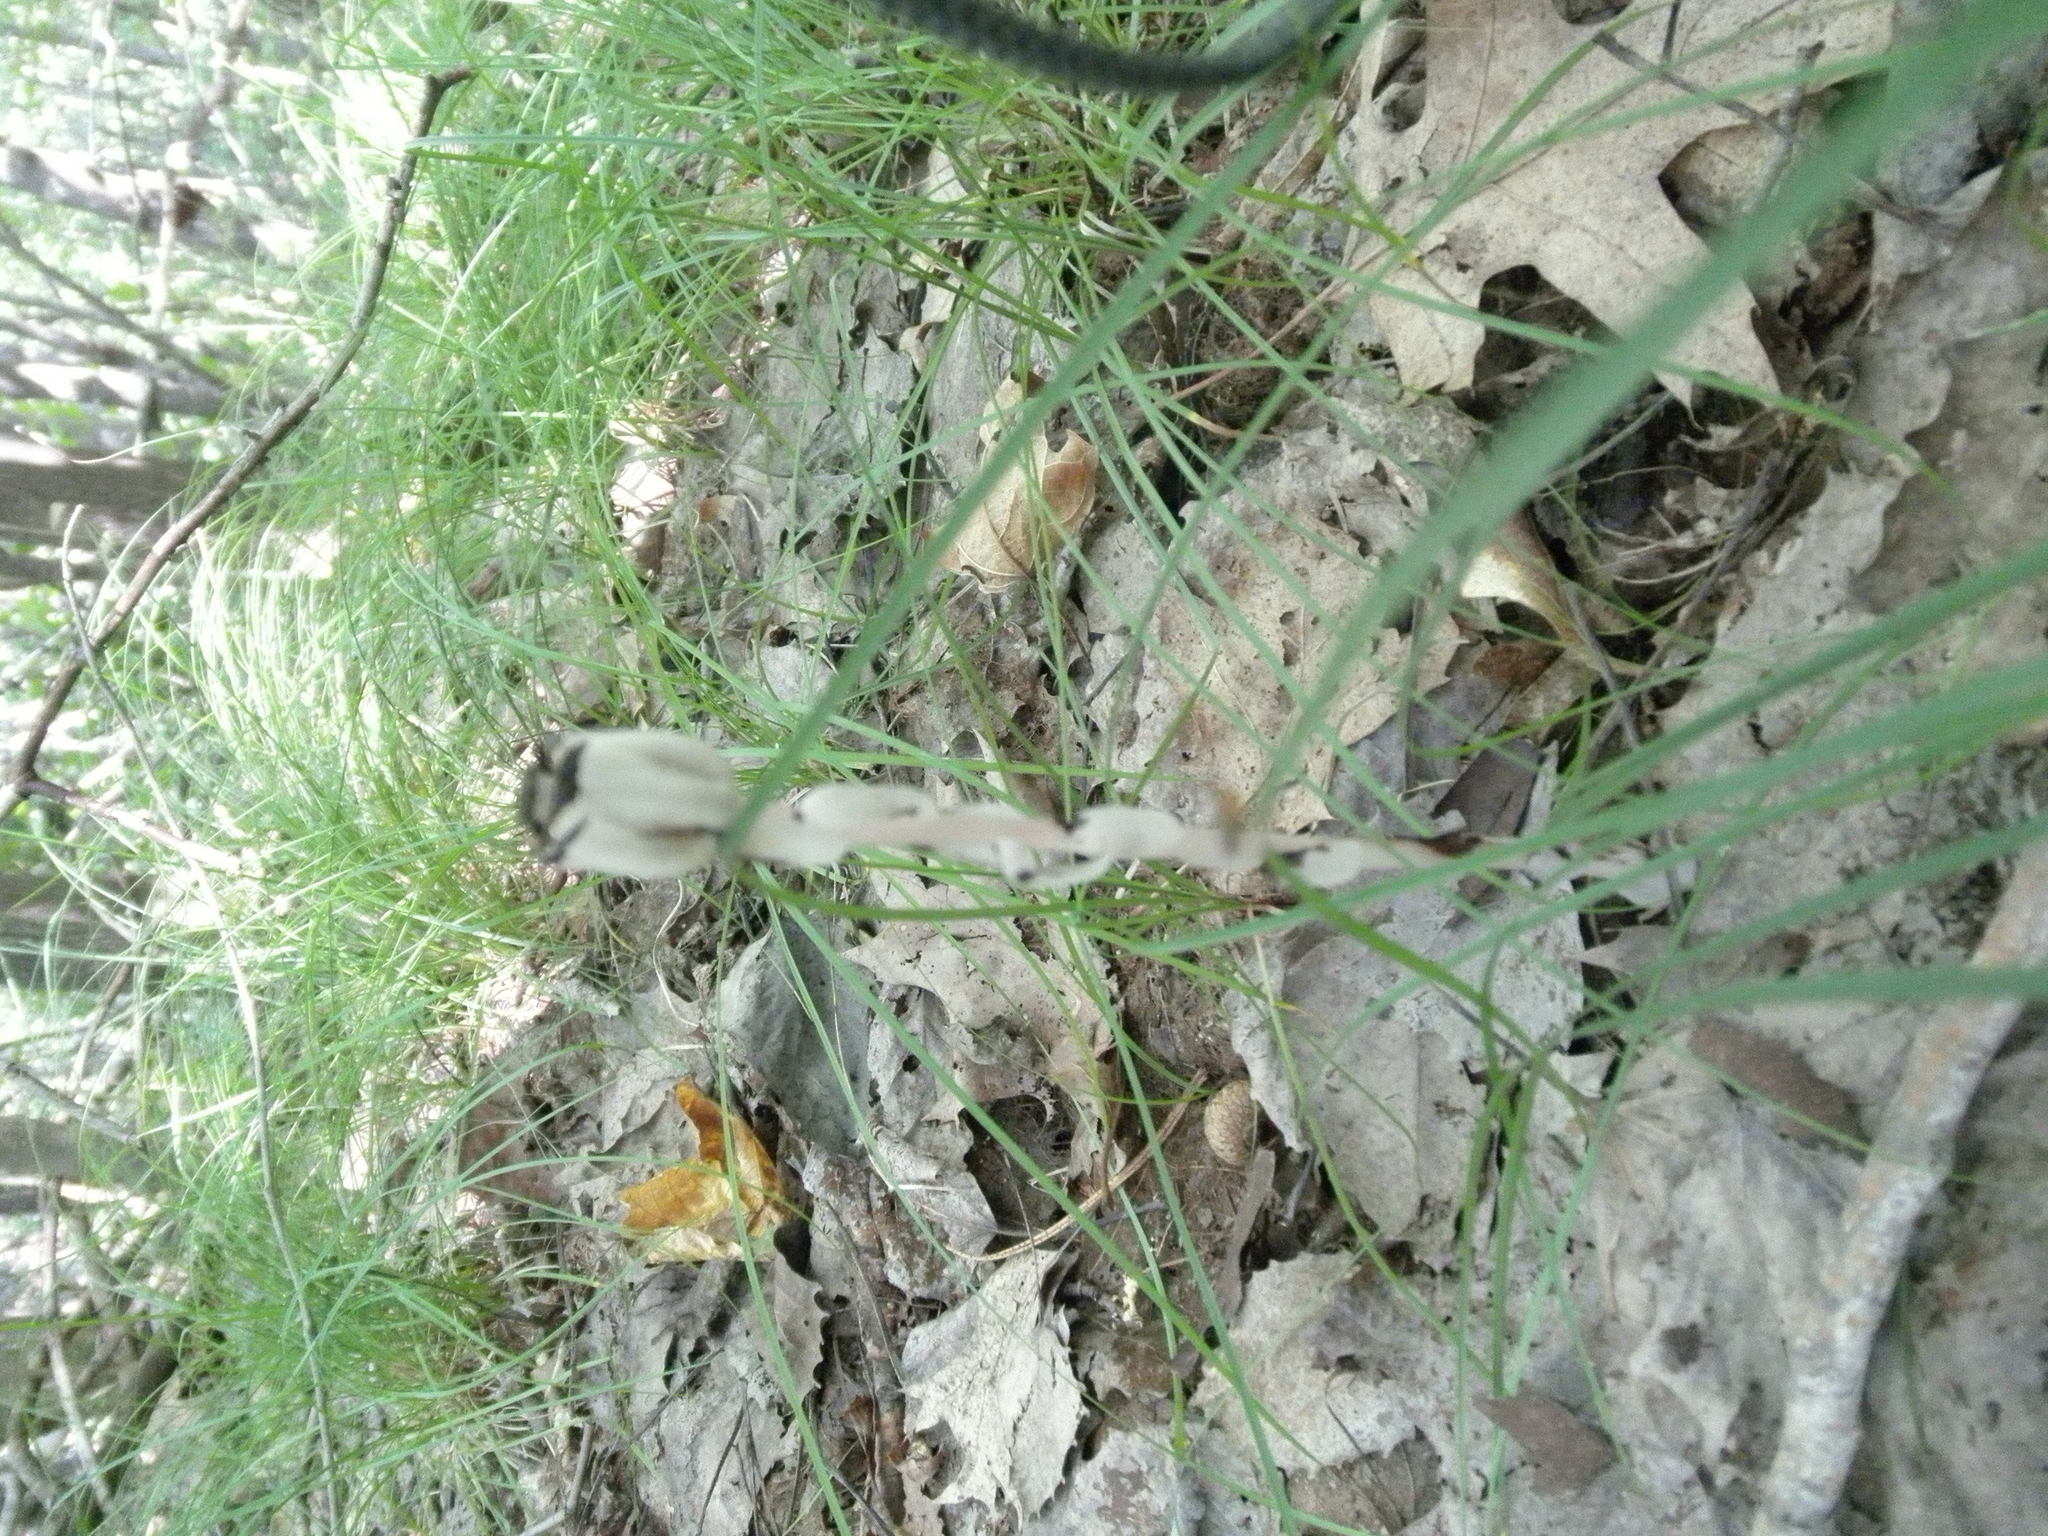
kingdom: Plantae
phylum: Tracheophyta
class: Magnoliopsida
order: Ericales
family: Ericaceae
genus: Monotropa
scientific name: Monotropa uniflora
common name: Convulsion root
